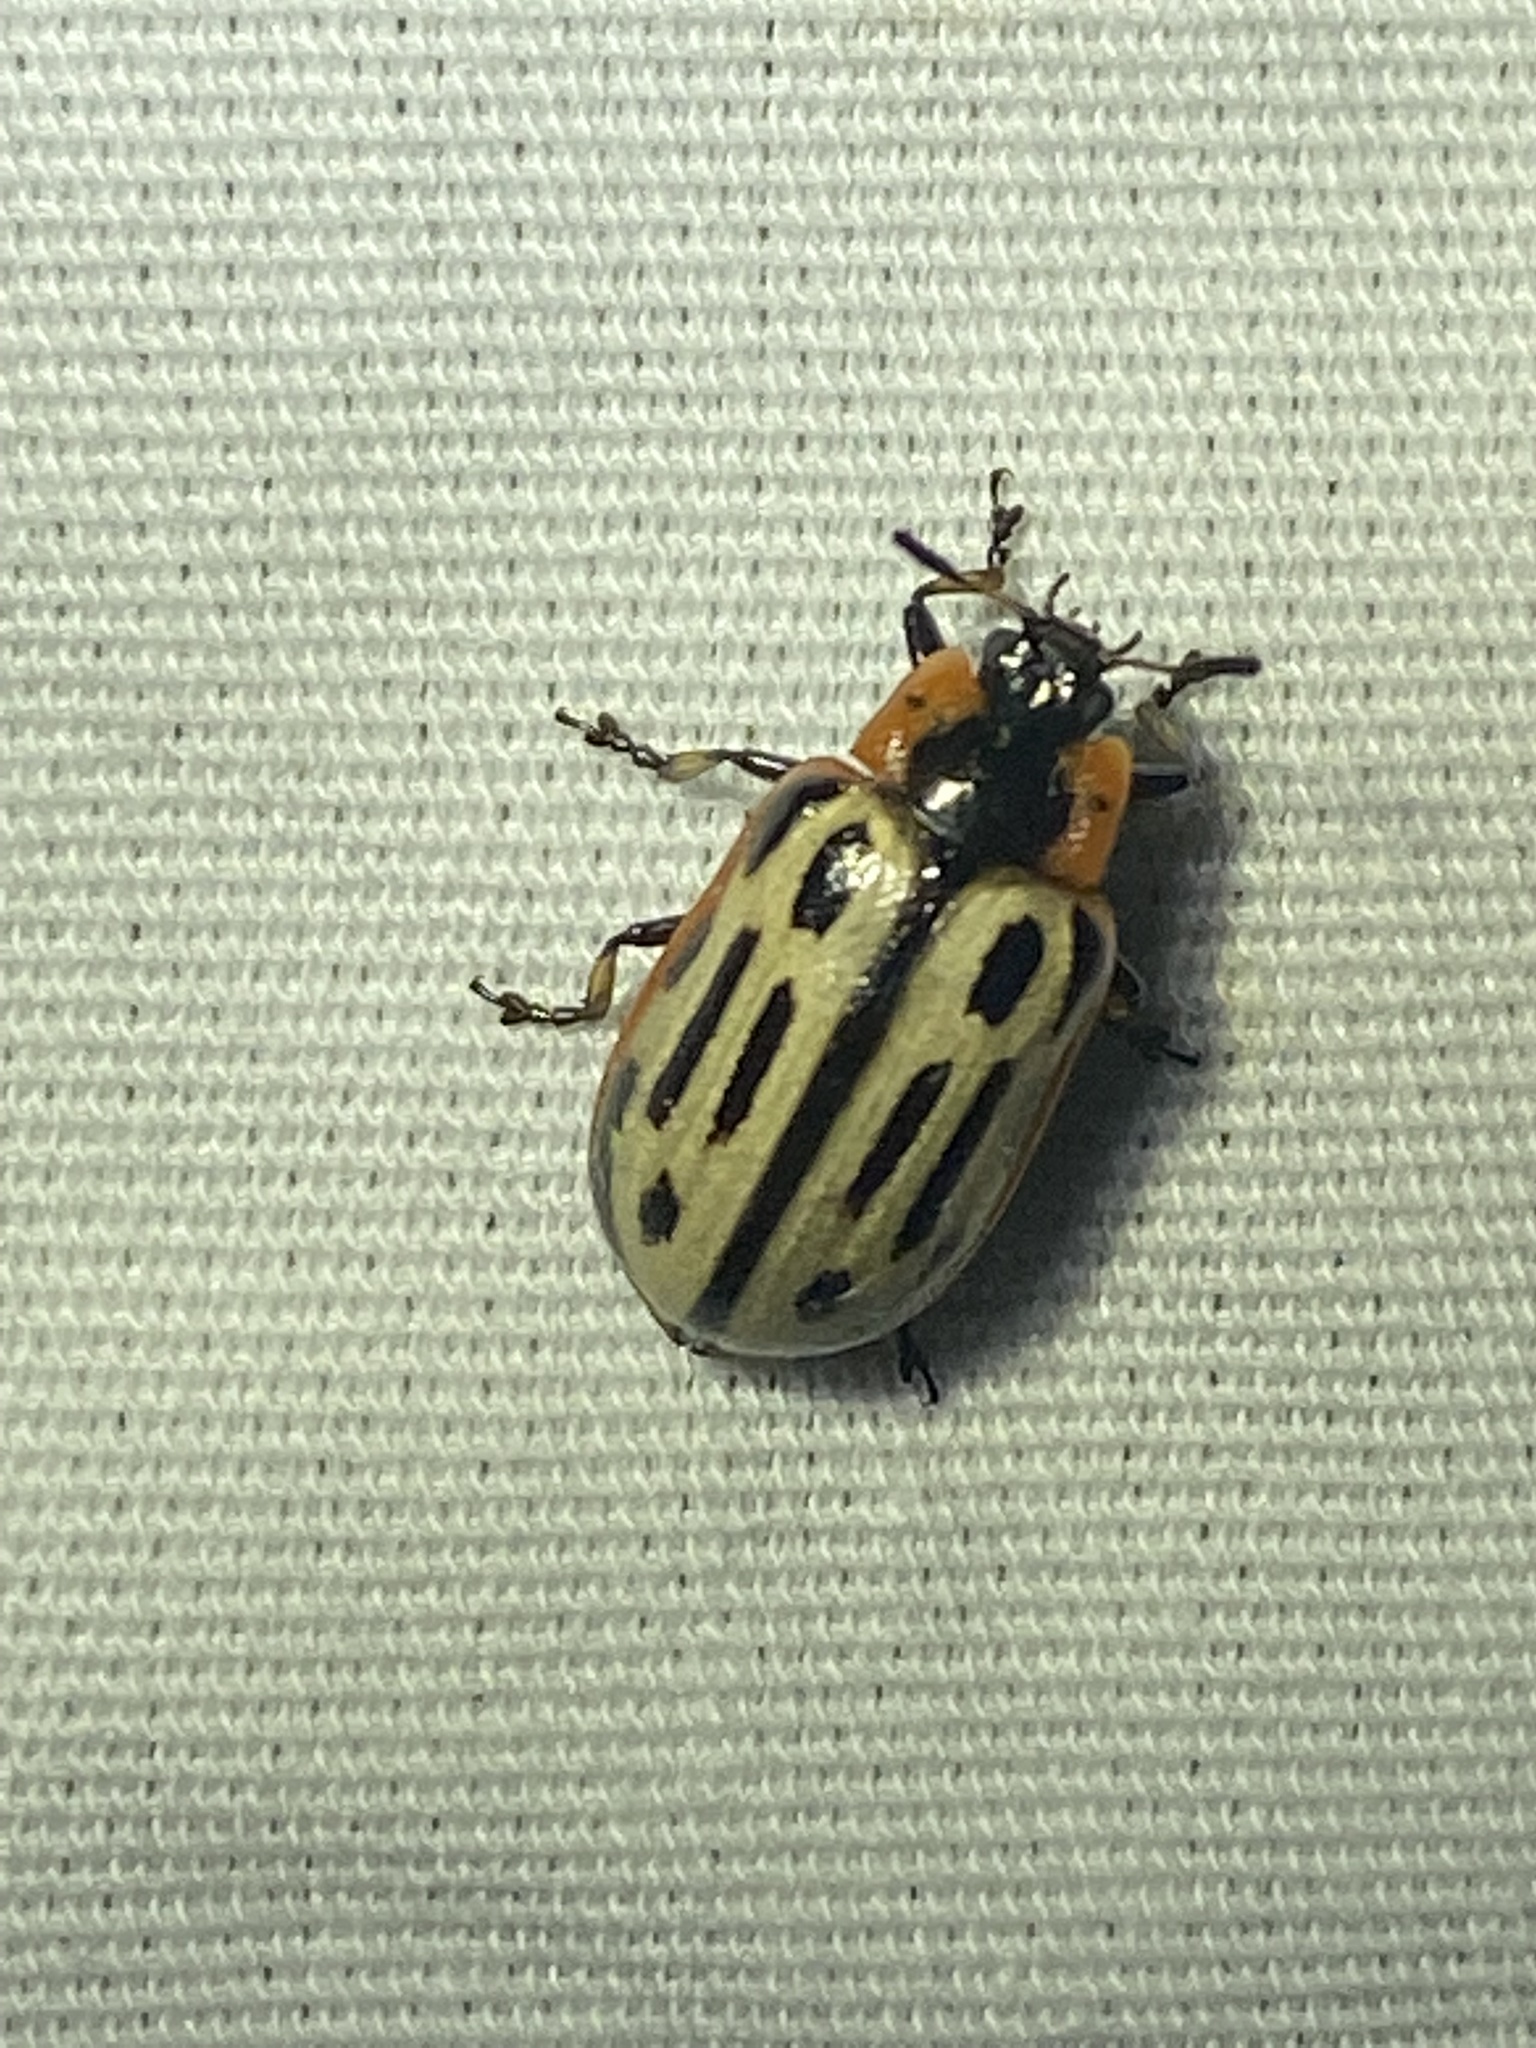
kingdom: Animalia
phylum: Arthropoda
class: Insecta
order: Coleoptera
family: Chrysomelidae
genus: Aethiopocassis
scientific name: Aethiopocassis scripta
